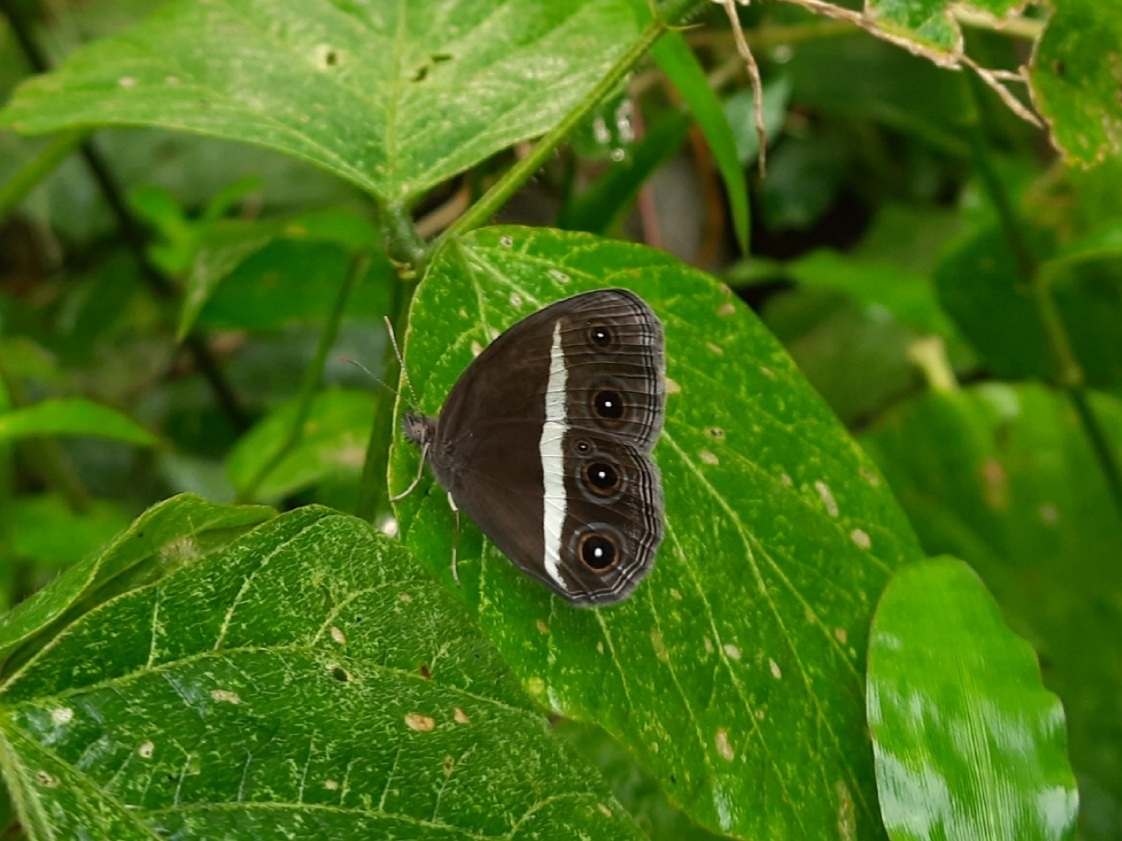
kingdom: Animalia
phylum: Arthropoda
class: Insecta
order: Lepidoptera
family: Nymphalidae
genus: Orsotriaena
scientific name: Orsotriaena medus
